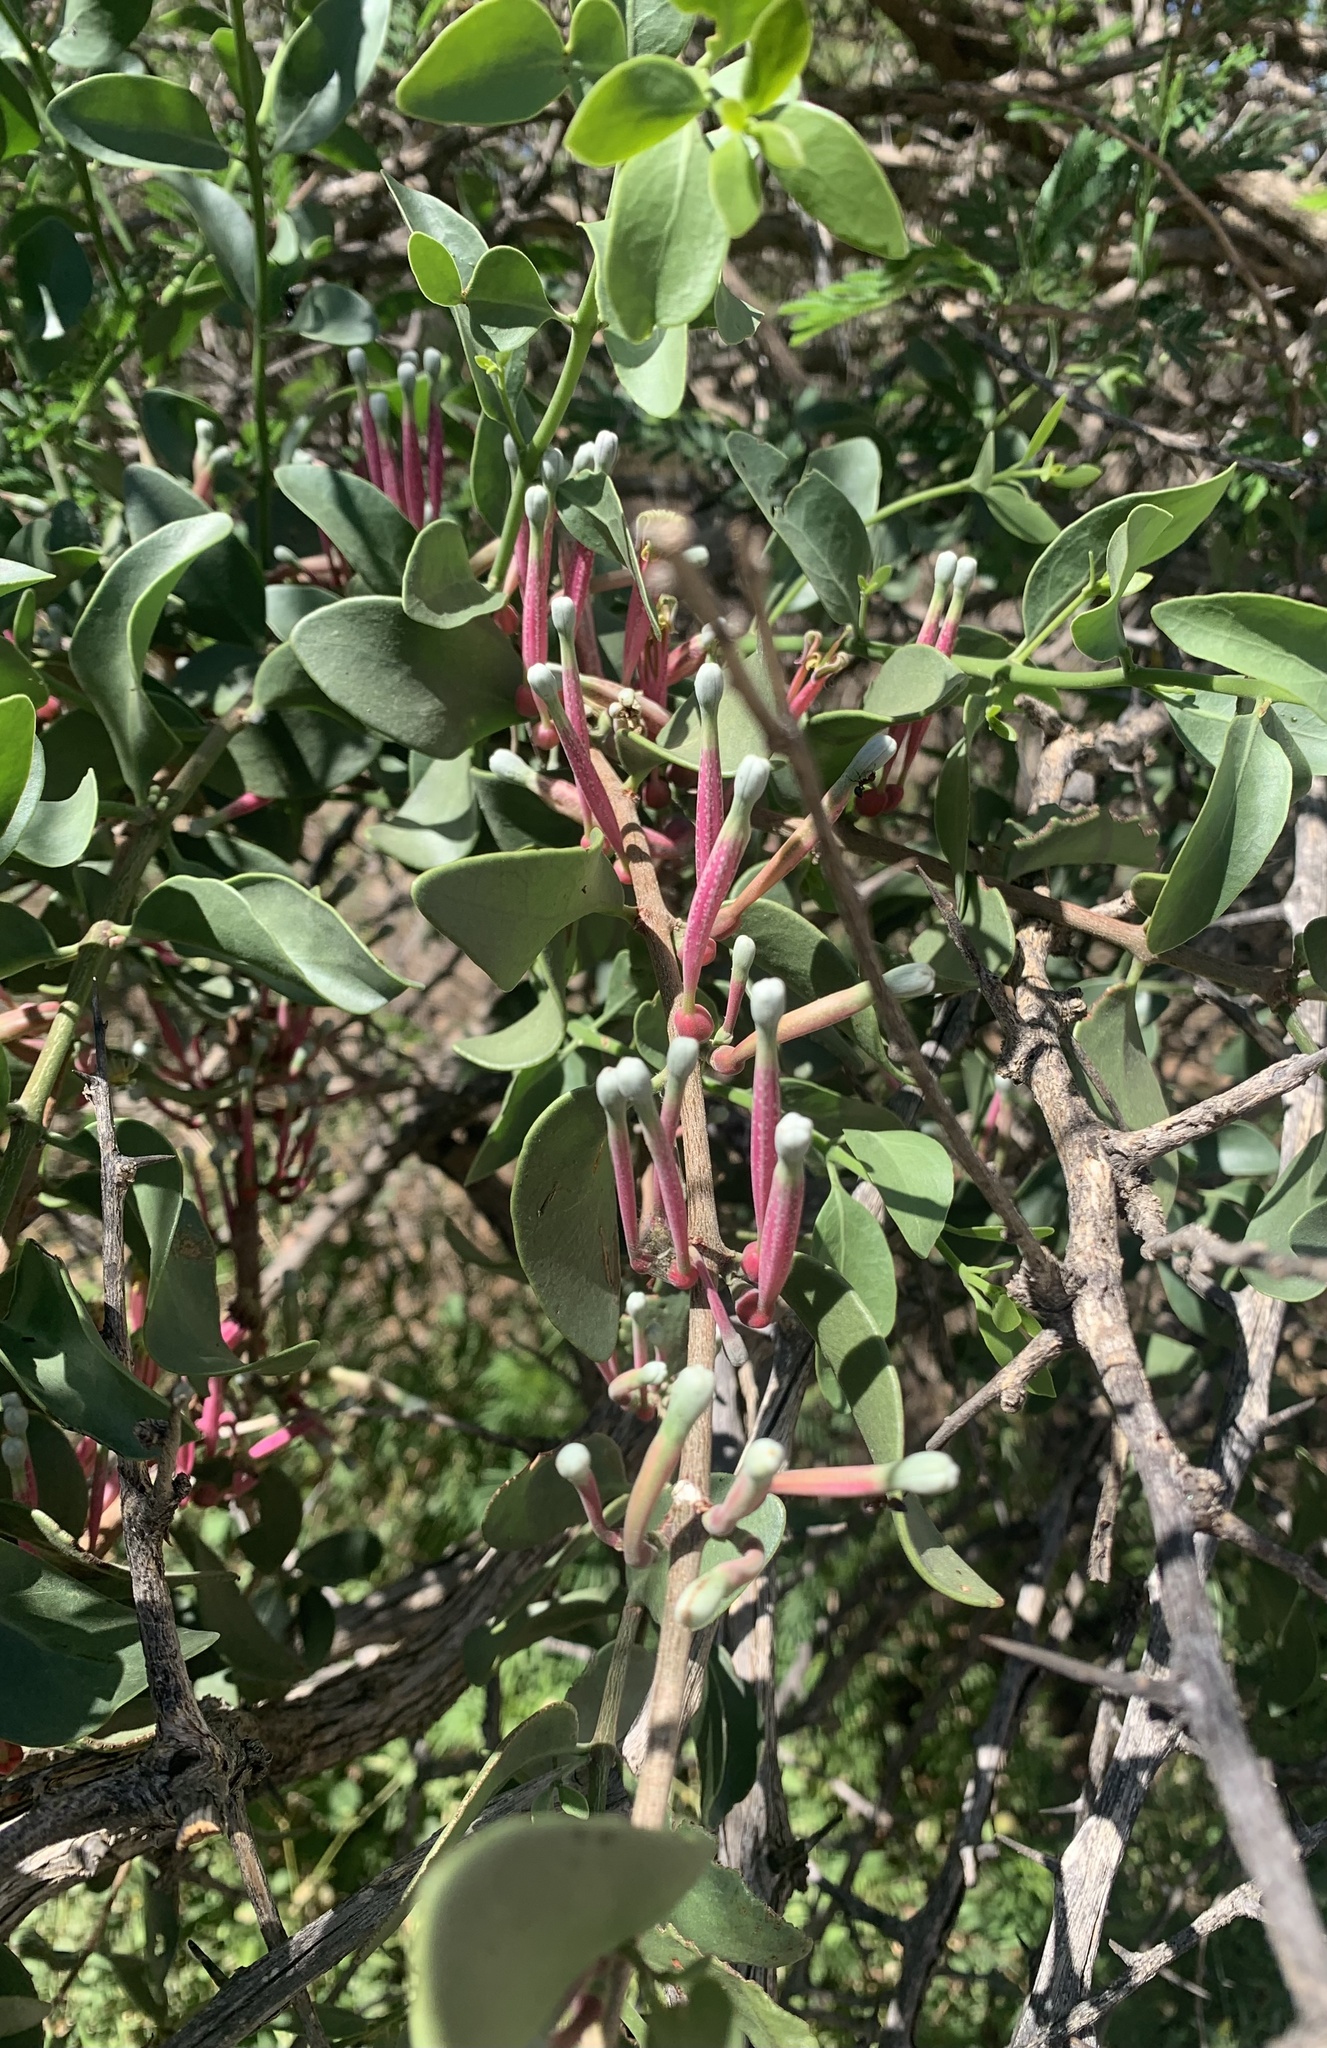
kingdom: Plantae
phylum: Tracheophyta
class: Magnoliopsida
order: Santalales
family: Loranthaceae
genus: Tapinanthus
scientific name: Tapinanthus oleifolius
